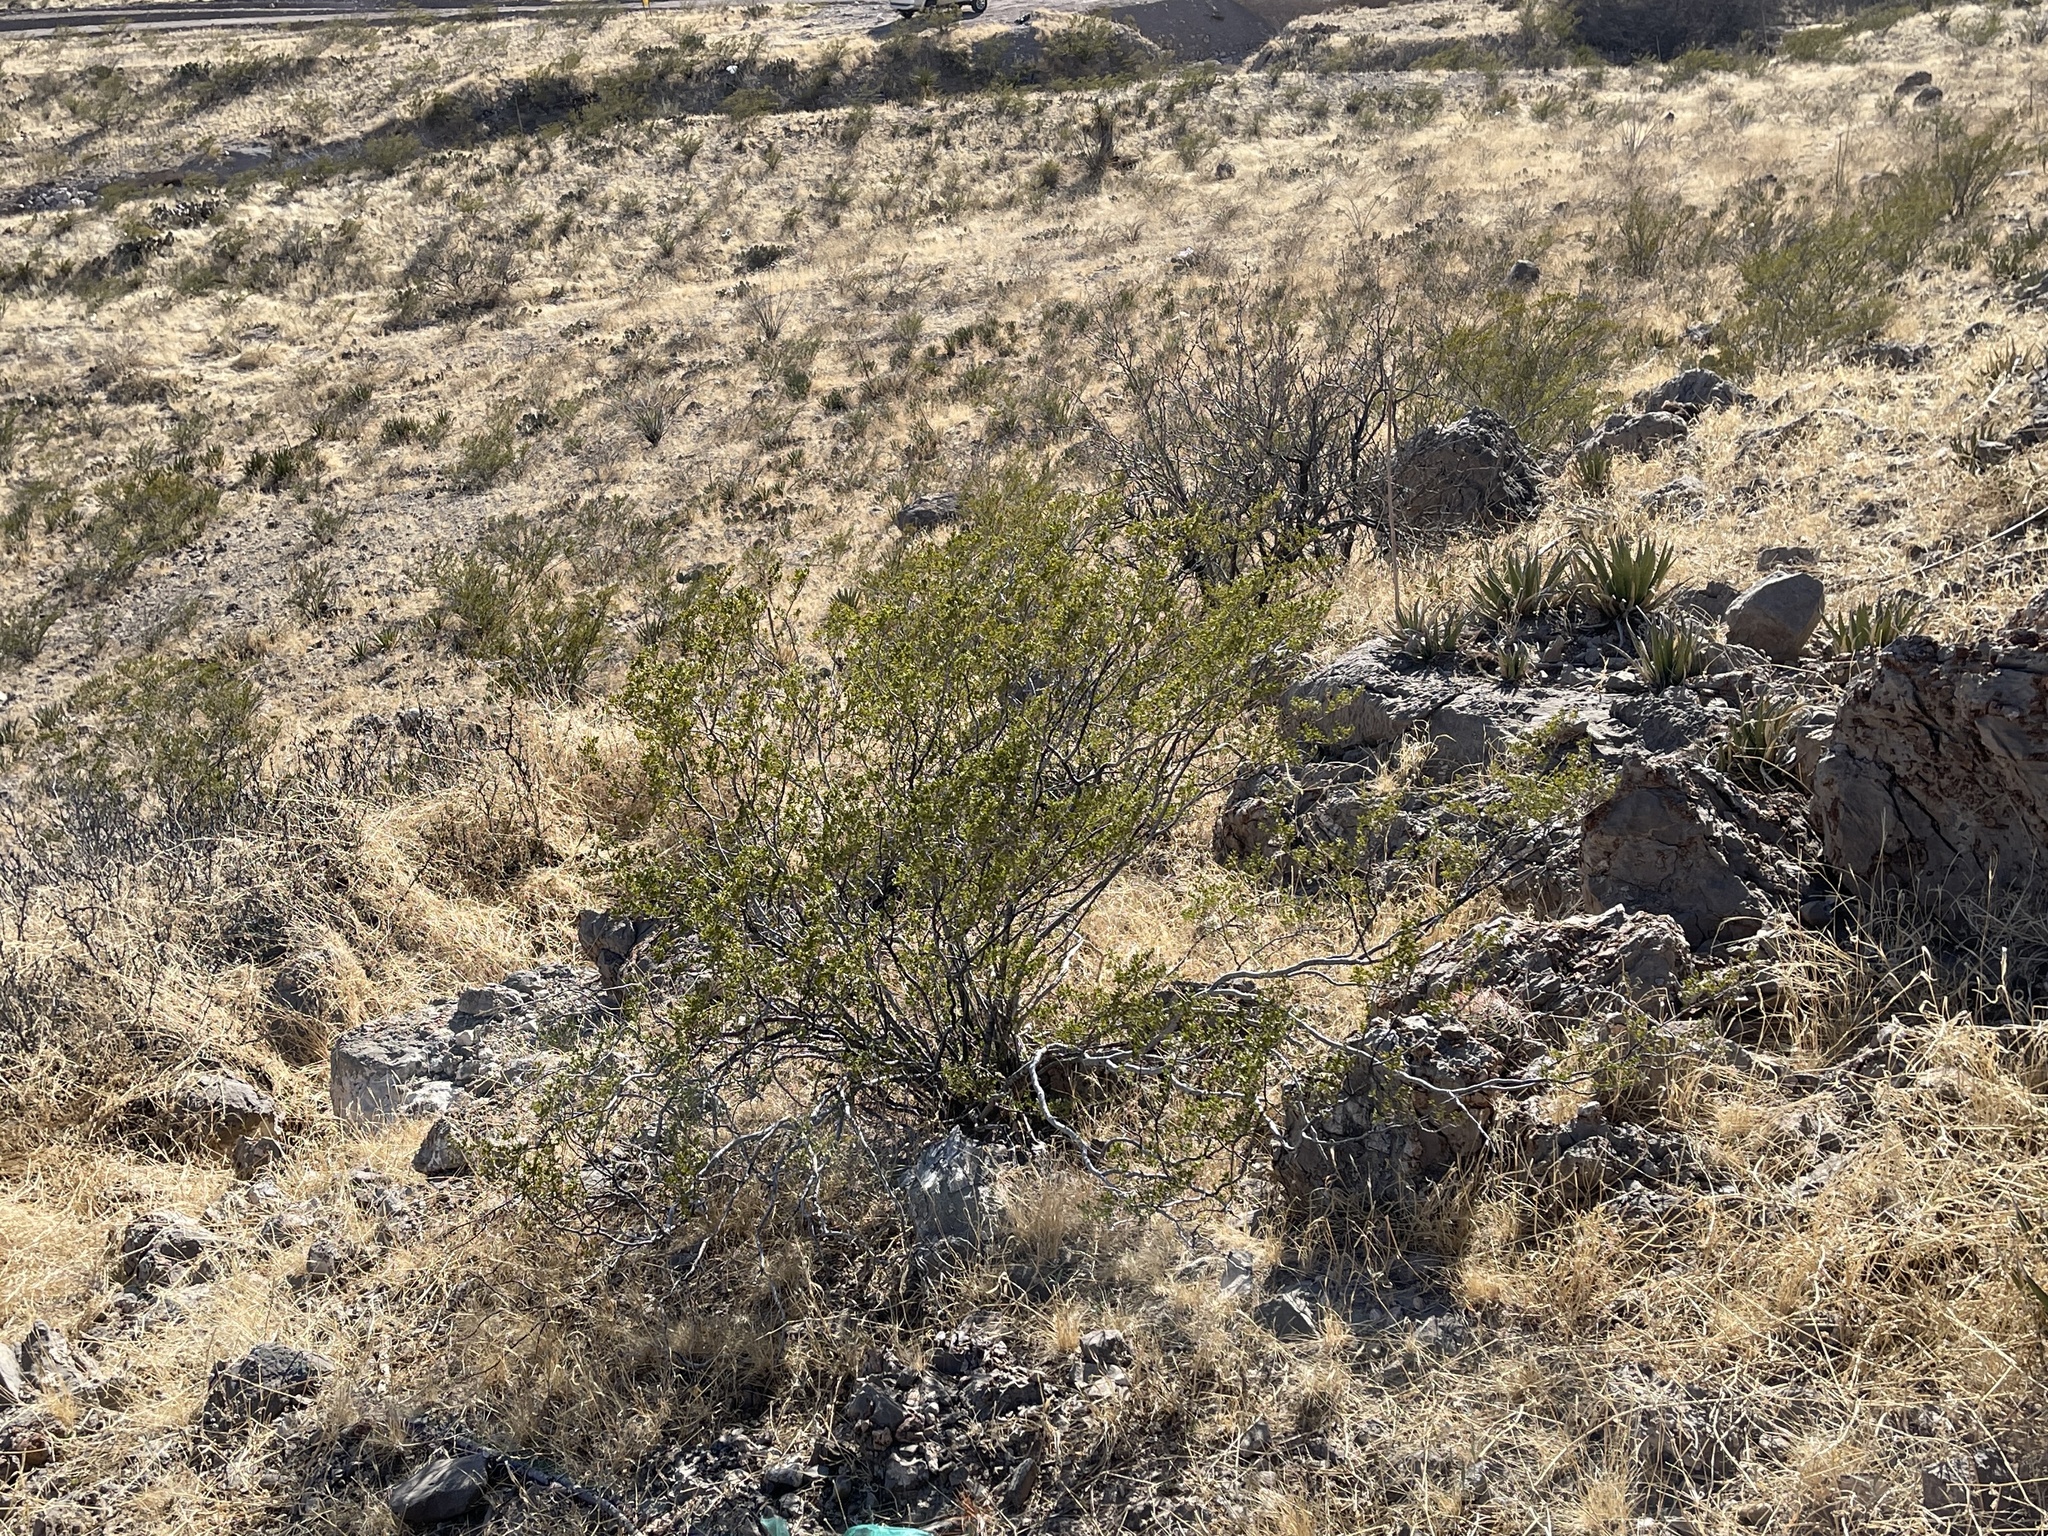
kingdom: Plantae
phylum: Tracheophyta
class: Magnoliopsida
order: Zygophyllales
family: Zygophyllaceae
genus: Larrea
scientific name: Larrea tridentata
